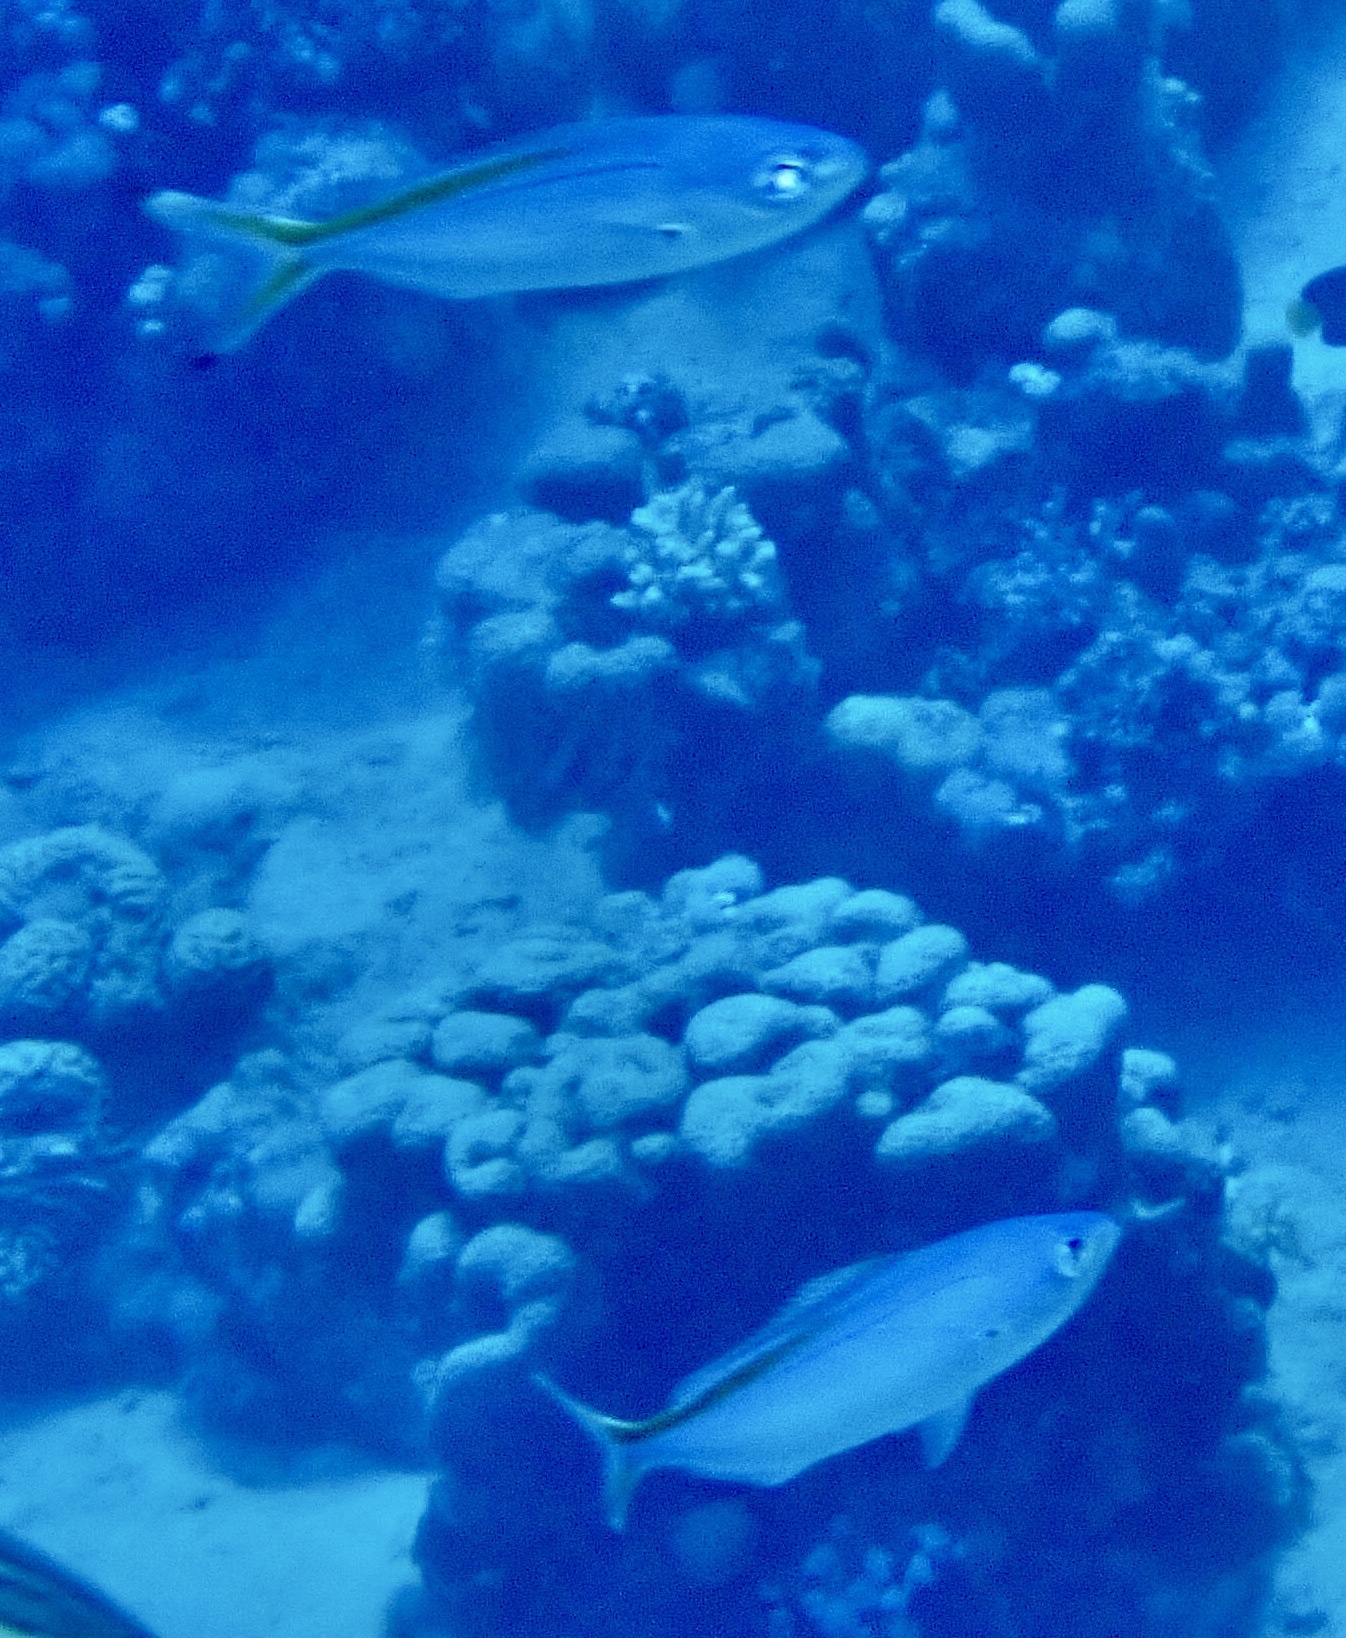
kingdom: Animalia
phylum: Chordata
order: Perciformes
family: Caesionidae
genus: Caesio
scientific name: Caesio suevica
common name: Suez fusilier
